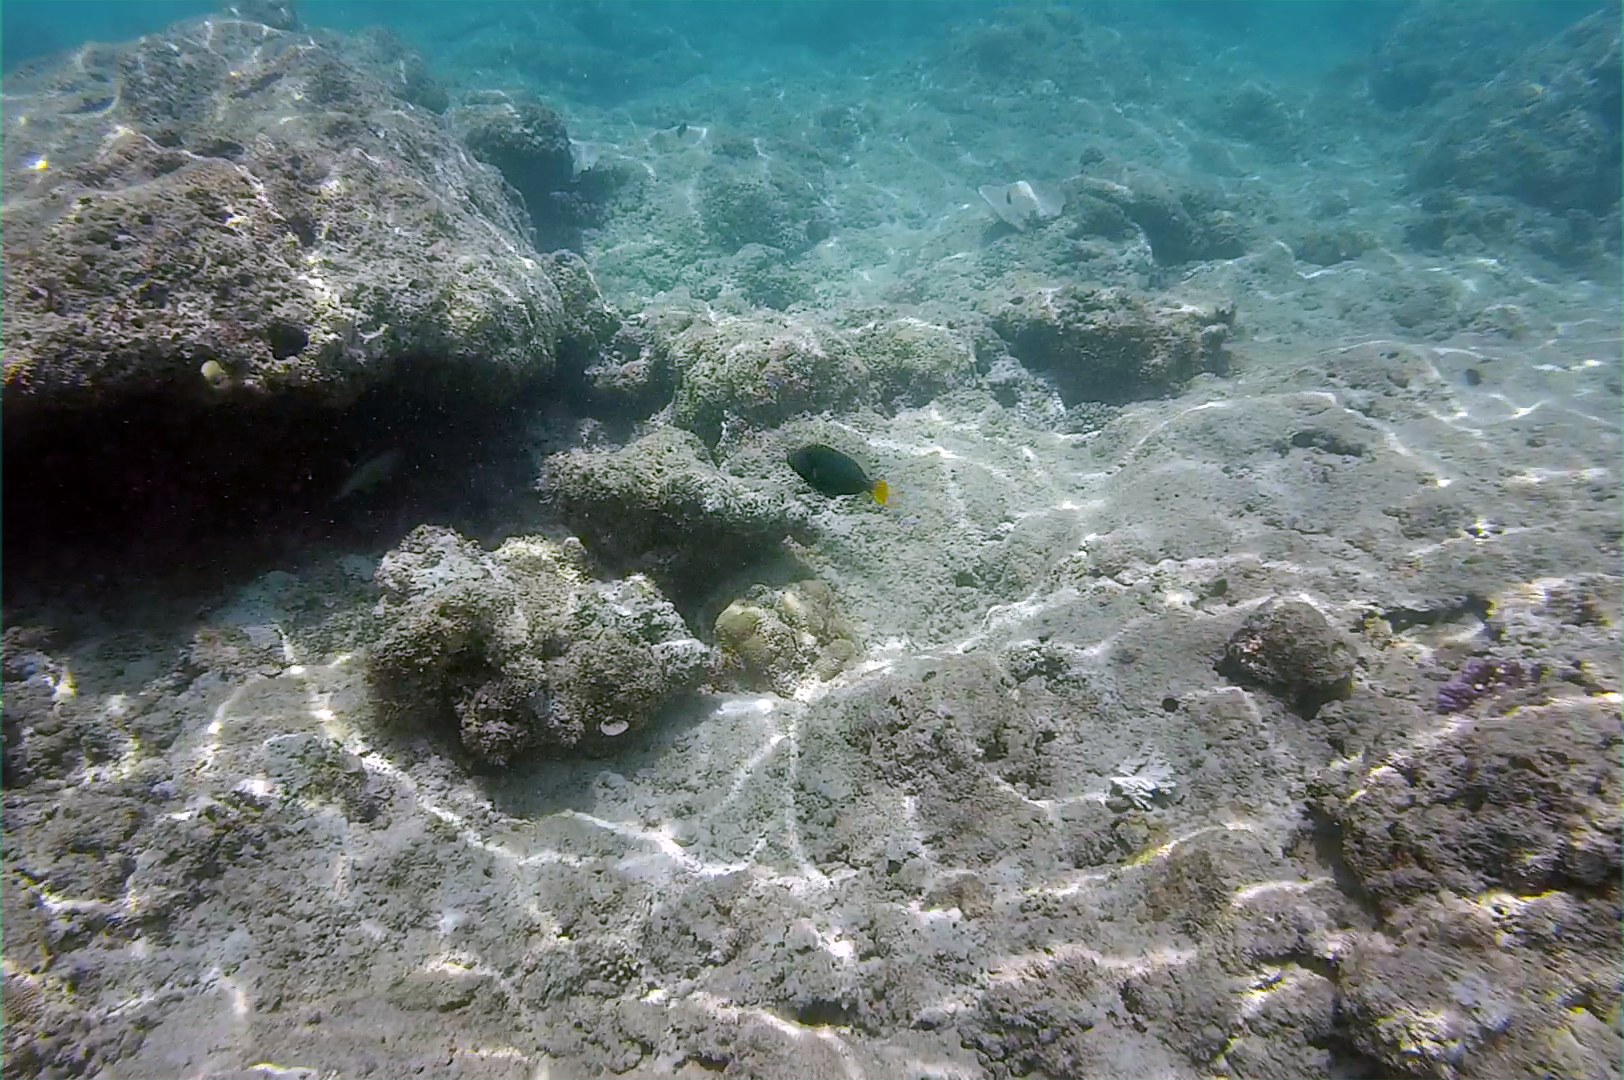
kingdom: Animalia
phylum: Chordata
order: Tetraodontiformes
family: Balistidae
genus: Balistapus
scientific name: Balistapus undulatus
